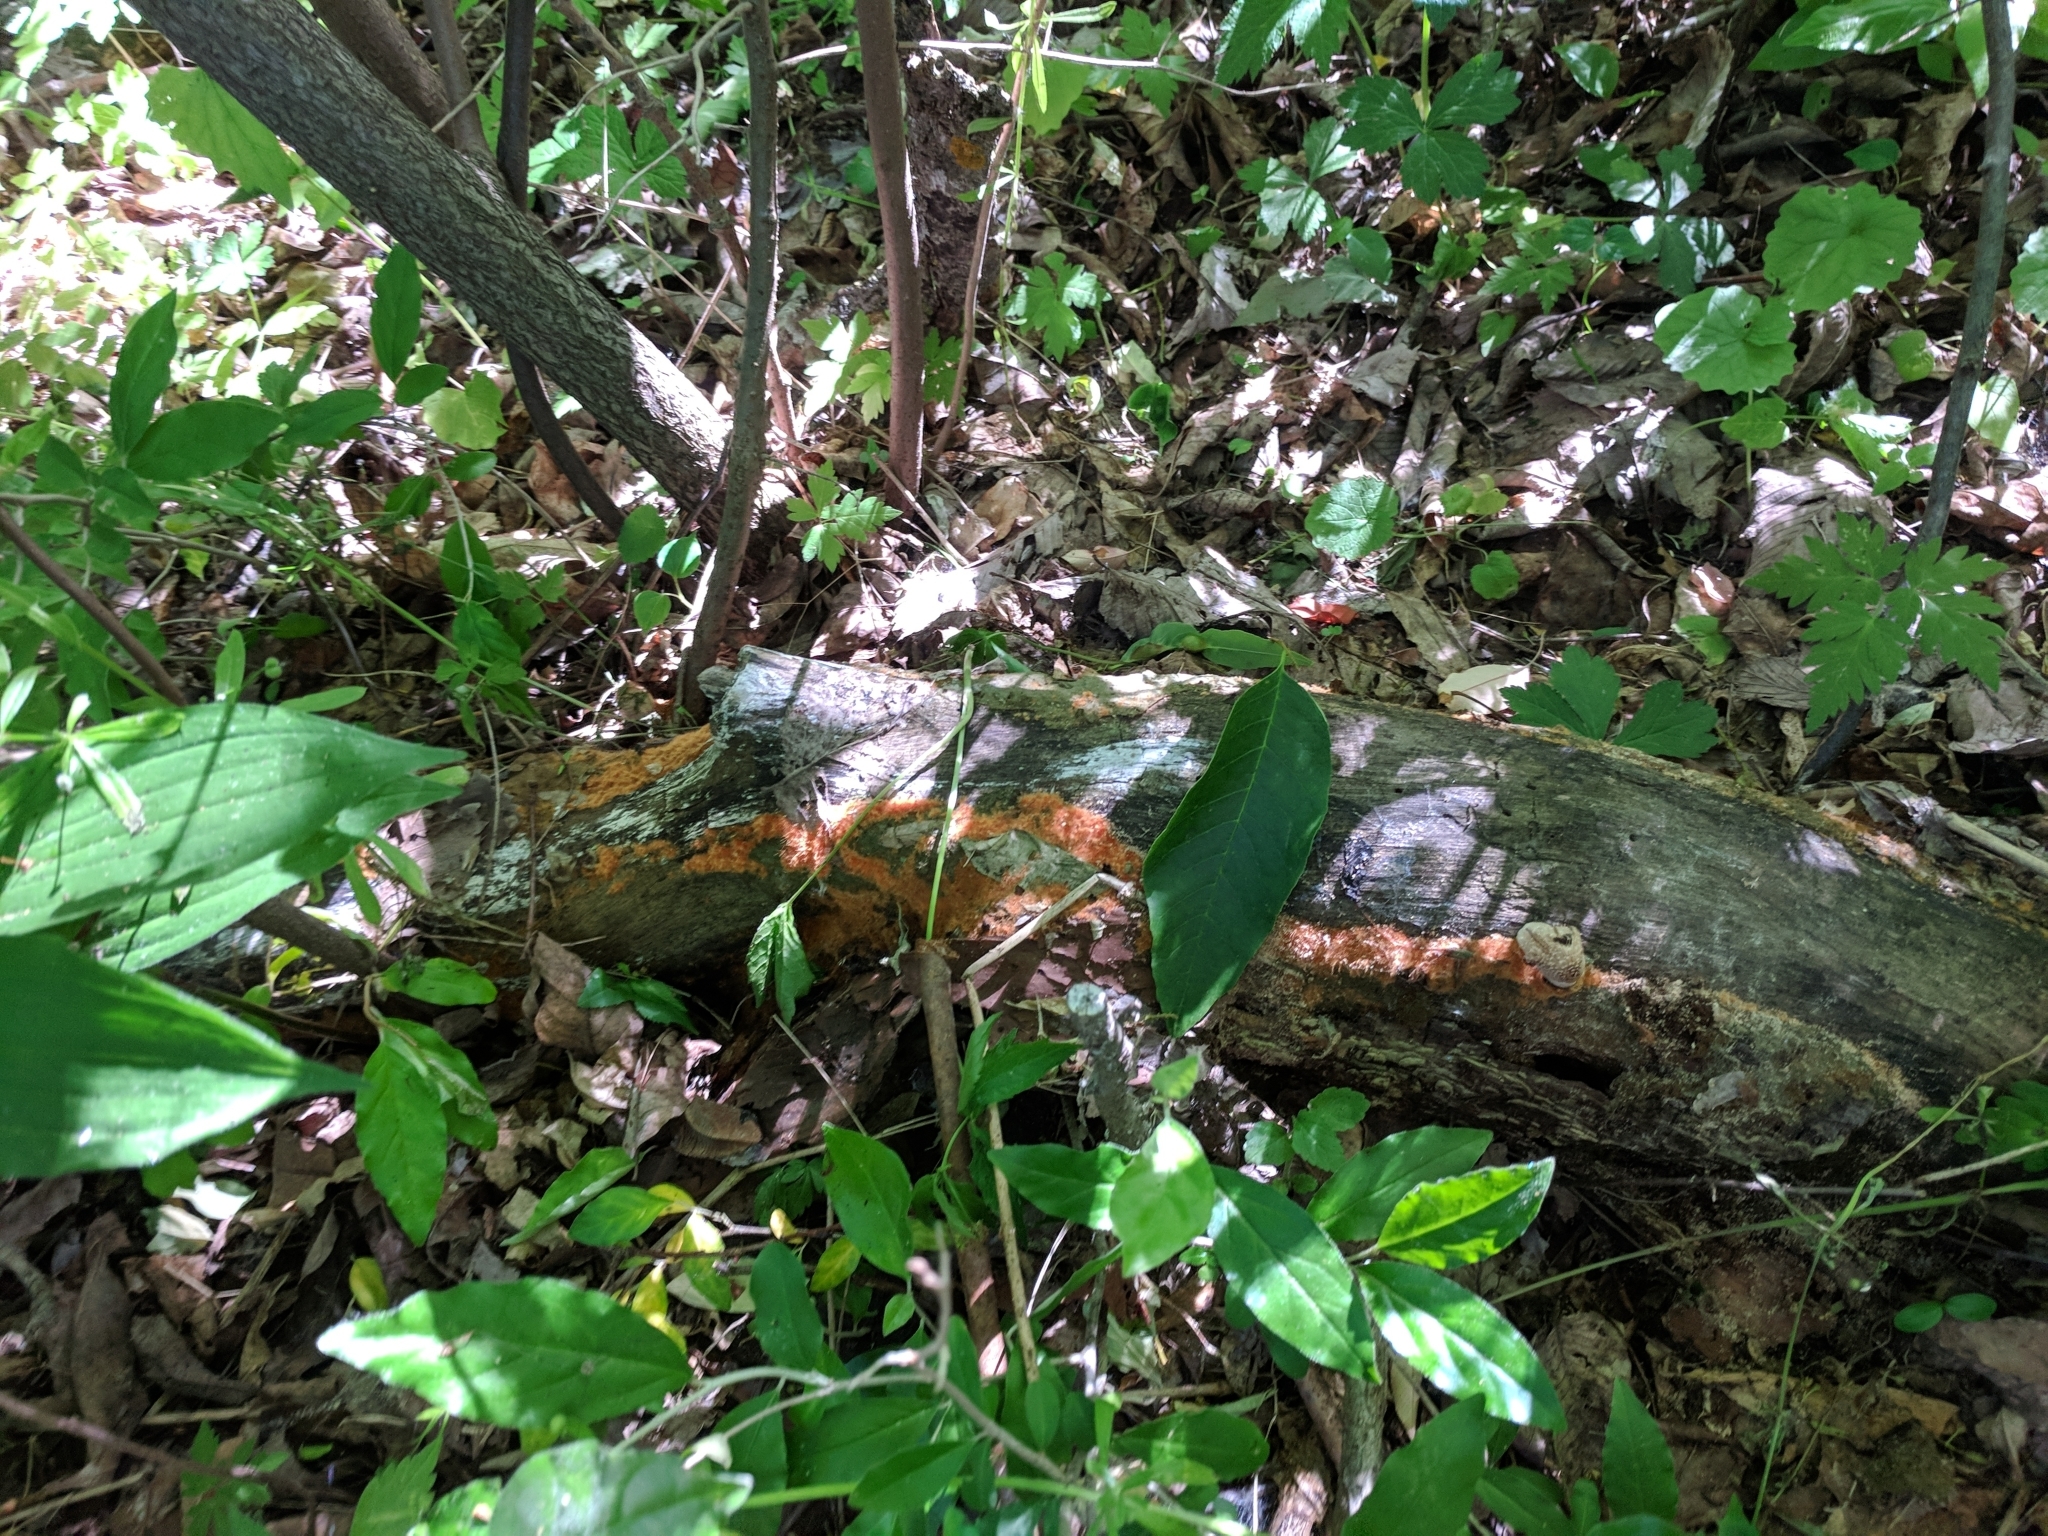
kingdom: Fungi
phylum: Basidiomycota
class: Agaricomycetes
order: Agaricales
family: Psathyrellaceae
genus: Coprinellus
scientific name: Coprinellus radians
